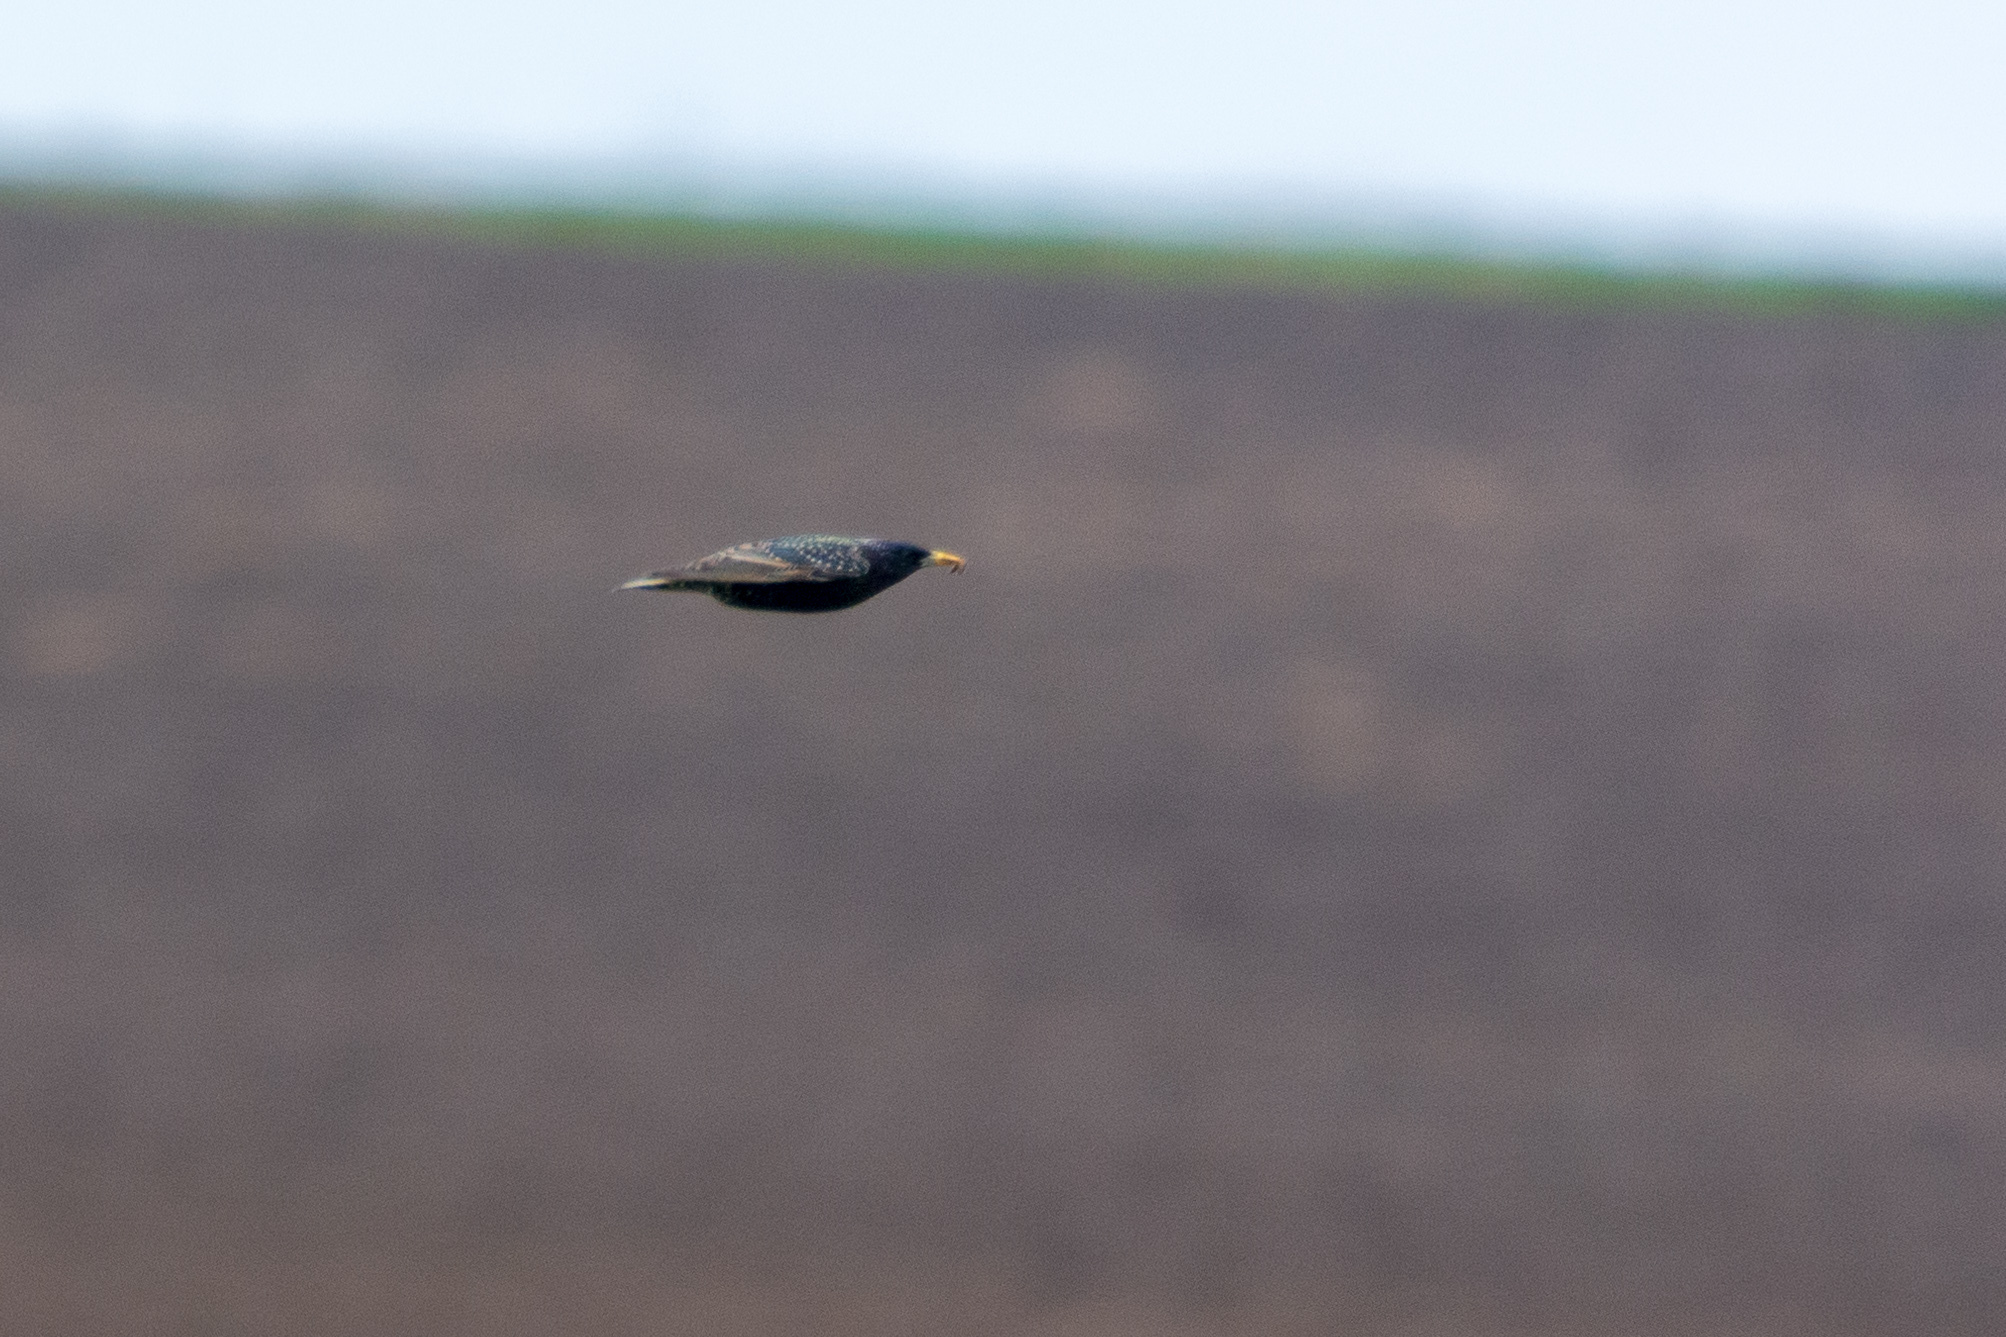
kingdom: Animalia
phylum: Chordata
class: Aves
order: Passeriformes
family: Sturnidae
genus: Sturnus
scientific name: Sturnus vulgaris
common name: Common starling
